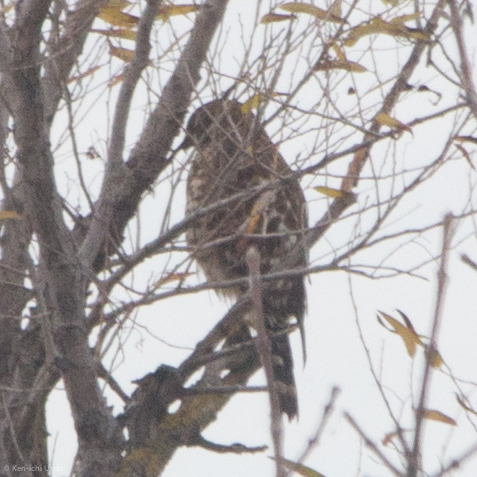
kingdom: Animalia
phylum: Chordata
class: Aves
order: Accipitriformes
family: Accipitridae
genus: Buteo
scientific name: Buteo lineatus
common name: Red-shouldered hawk
